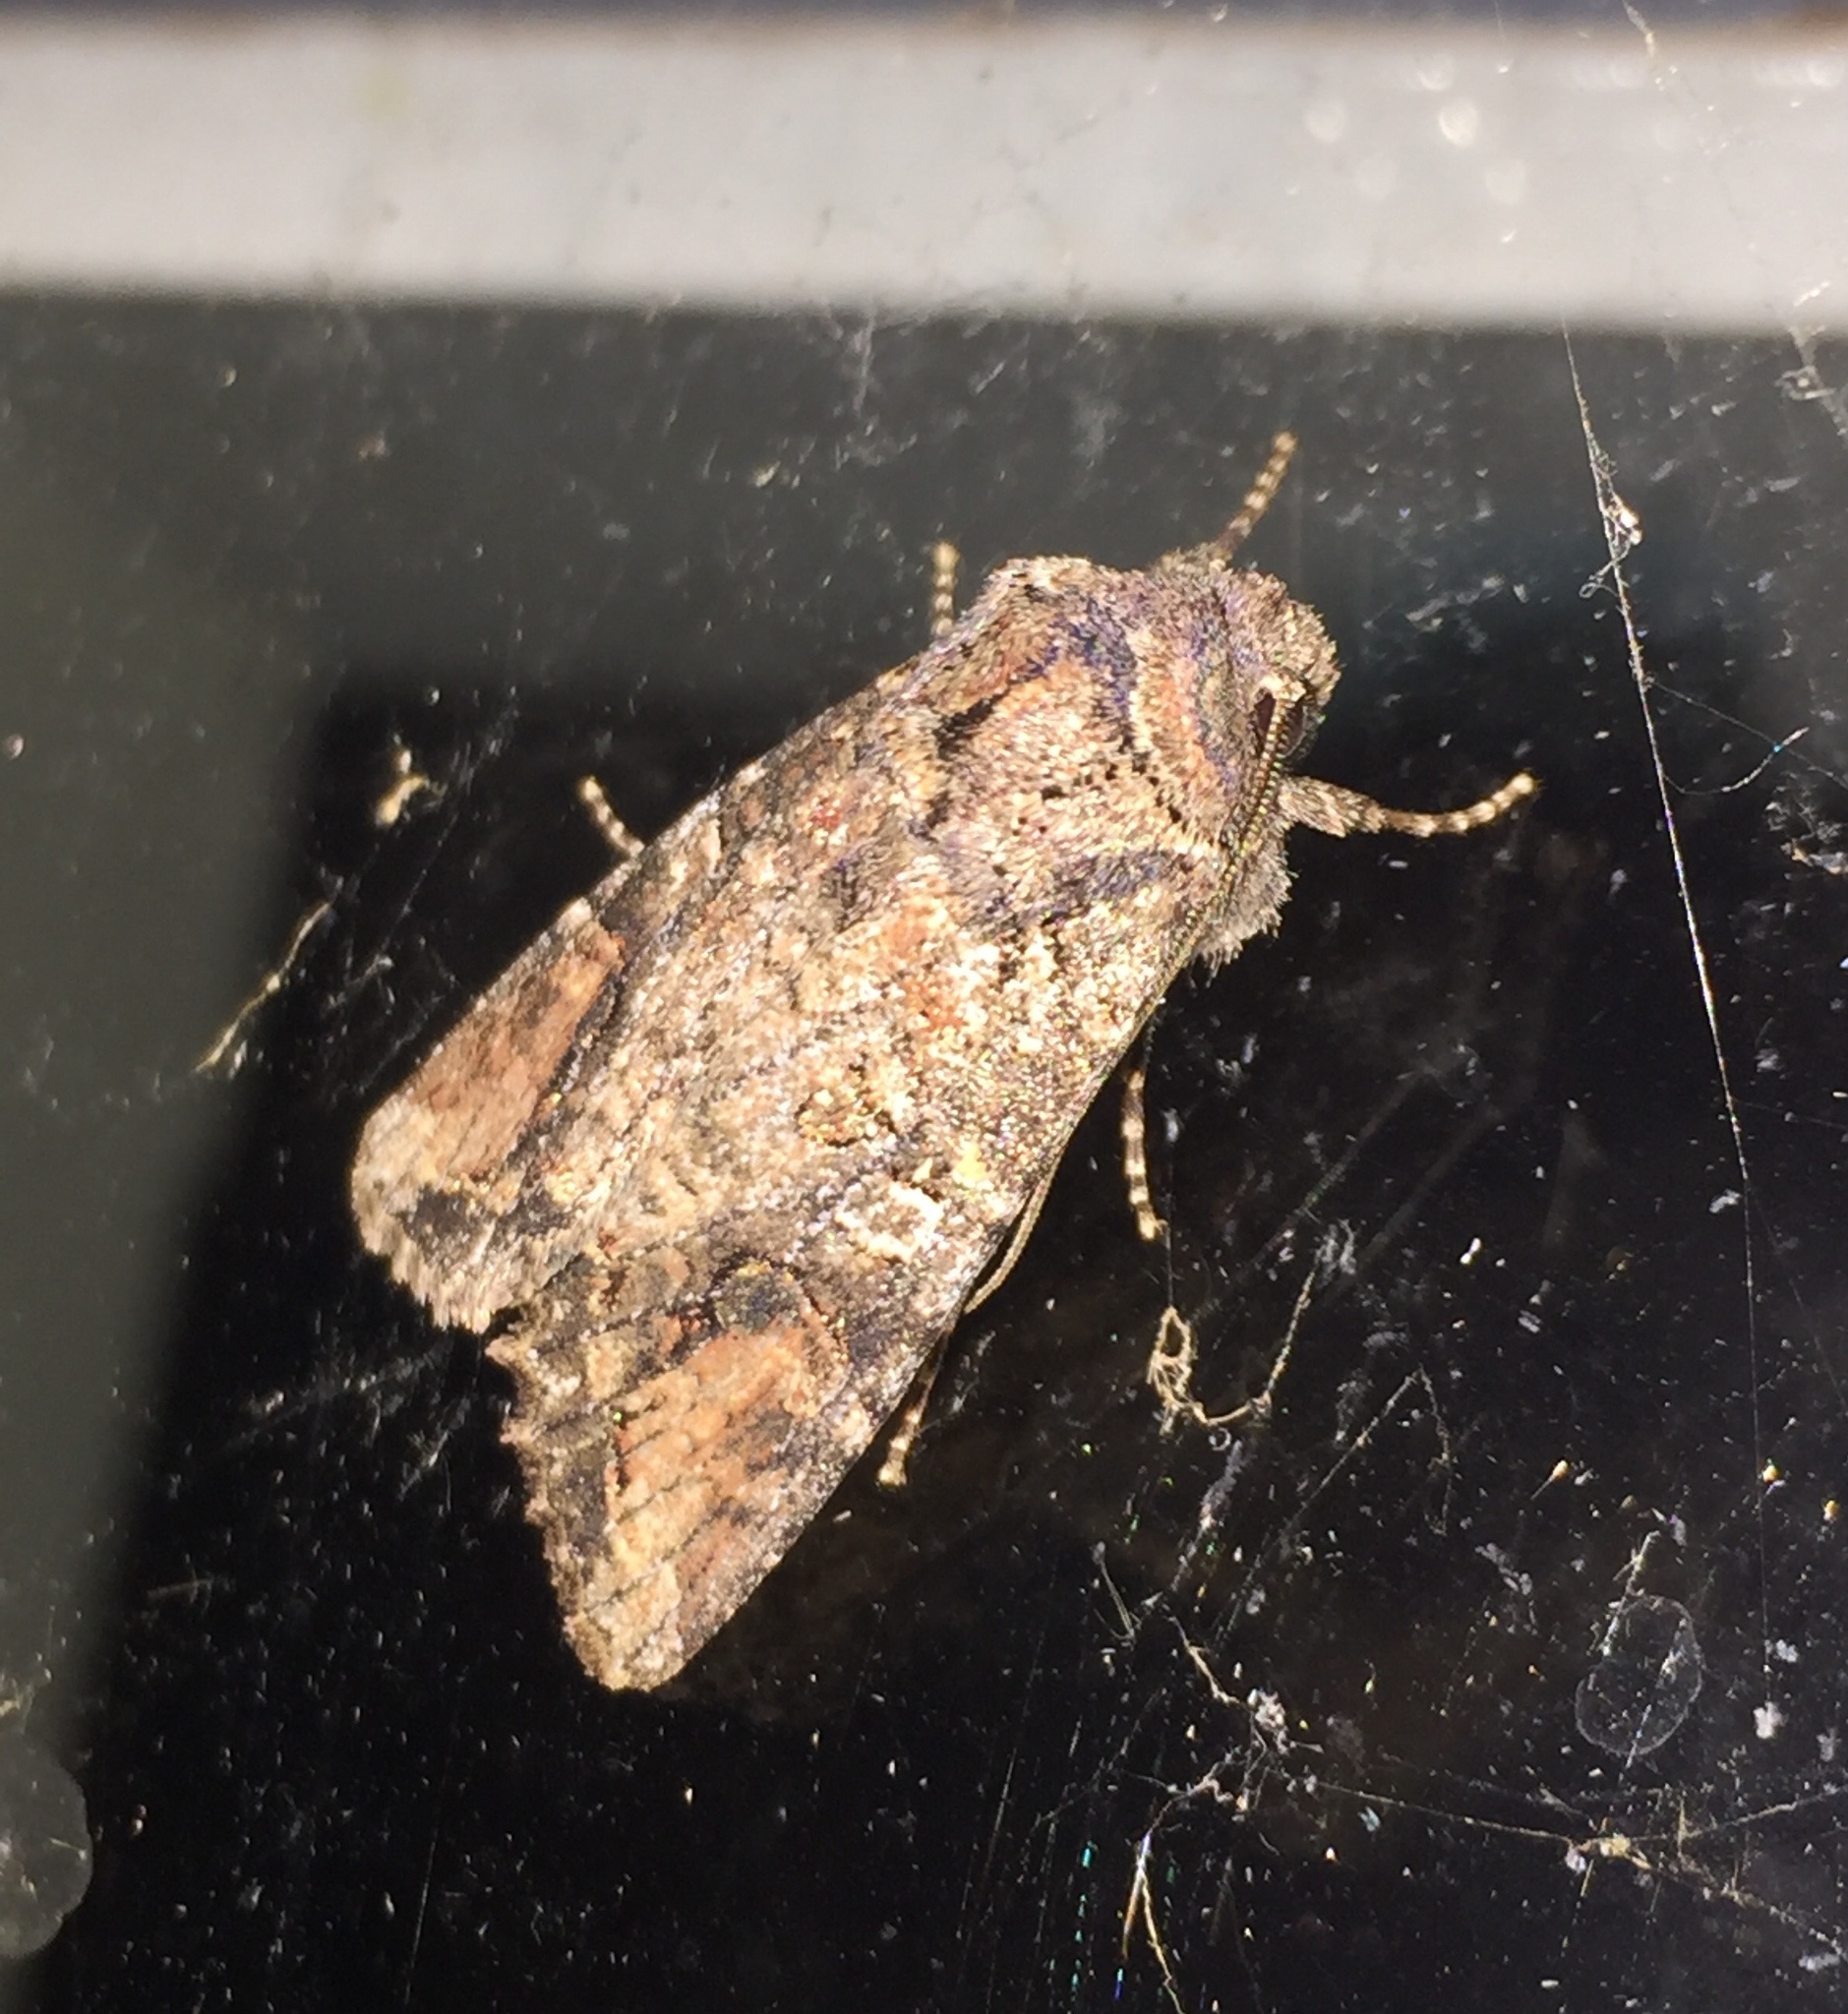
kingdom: Animalia
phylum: Arthropoda
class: Insecta
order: Lepidoptera
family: Noctuidae
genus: Egira
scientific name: Egira perlubens
